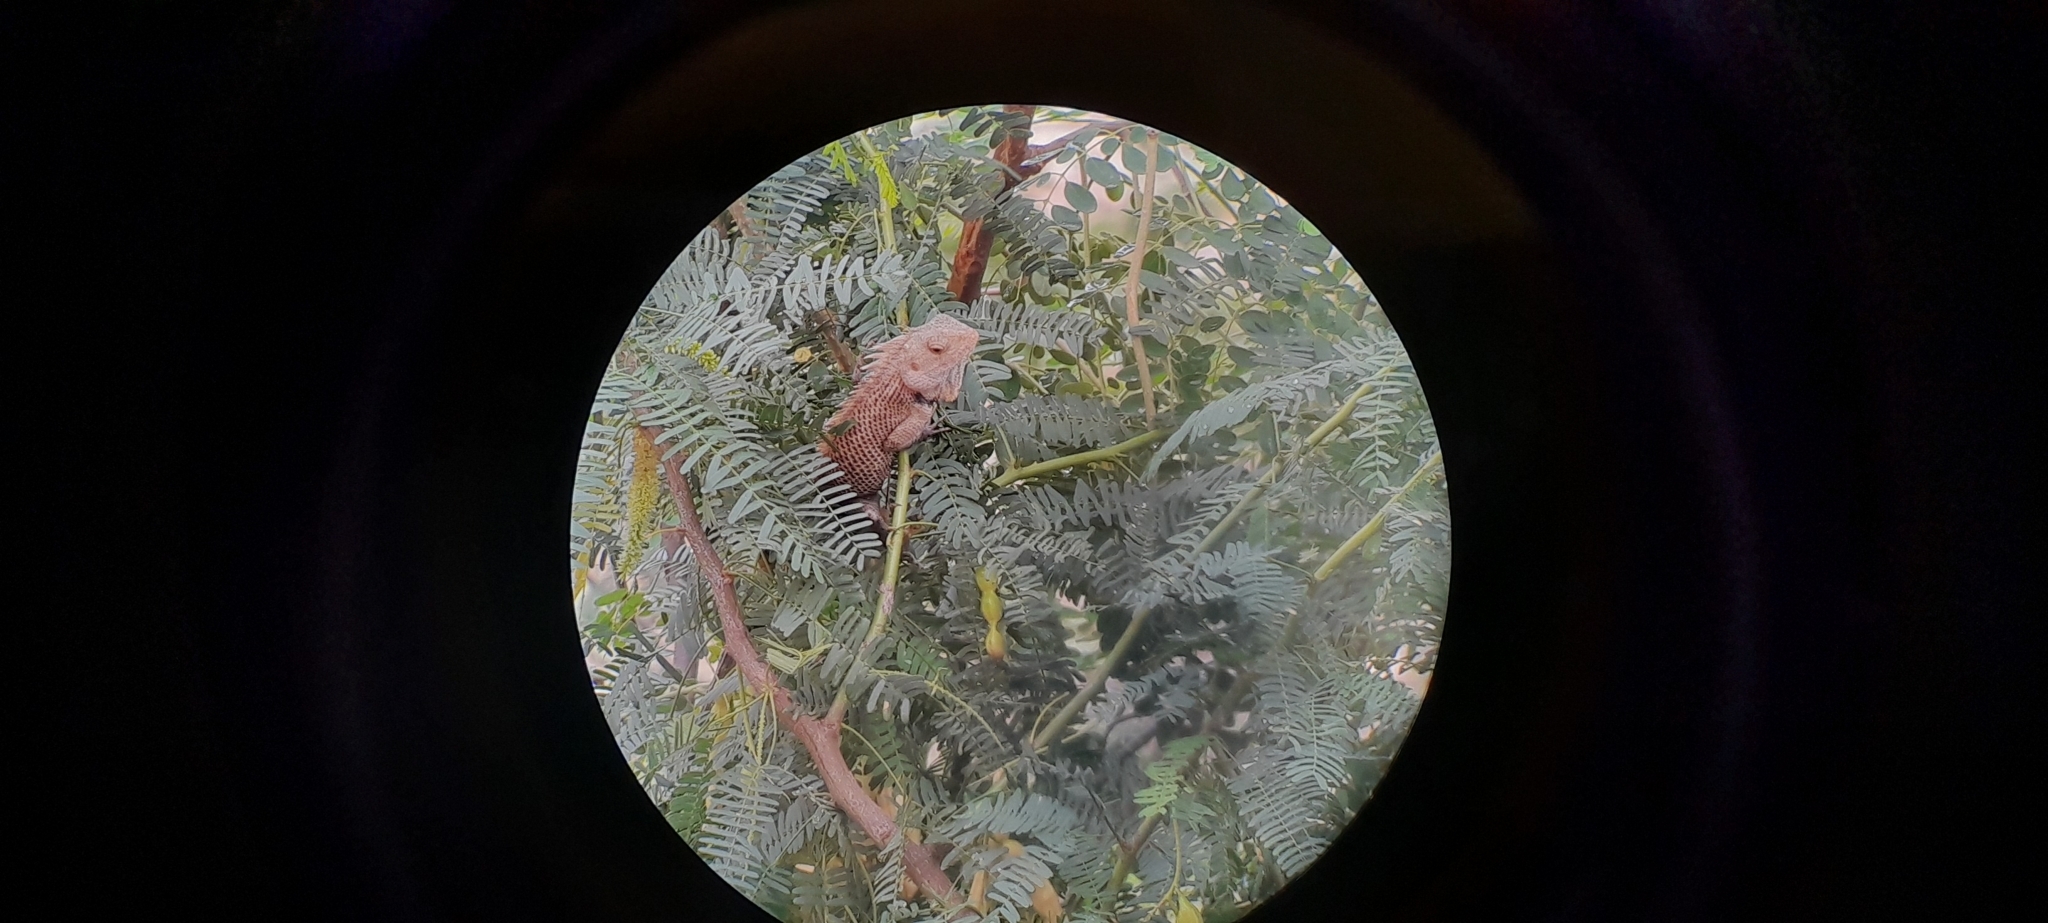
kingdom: Animalia
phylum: Chordata
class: Squamata
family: Agamidae
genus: Calotes
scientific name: Calotes versicolor
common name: Oriental garden lizard
